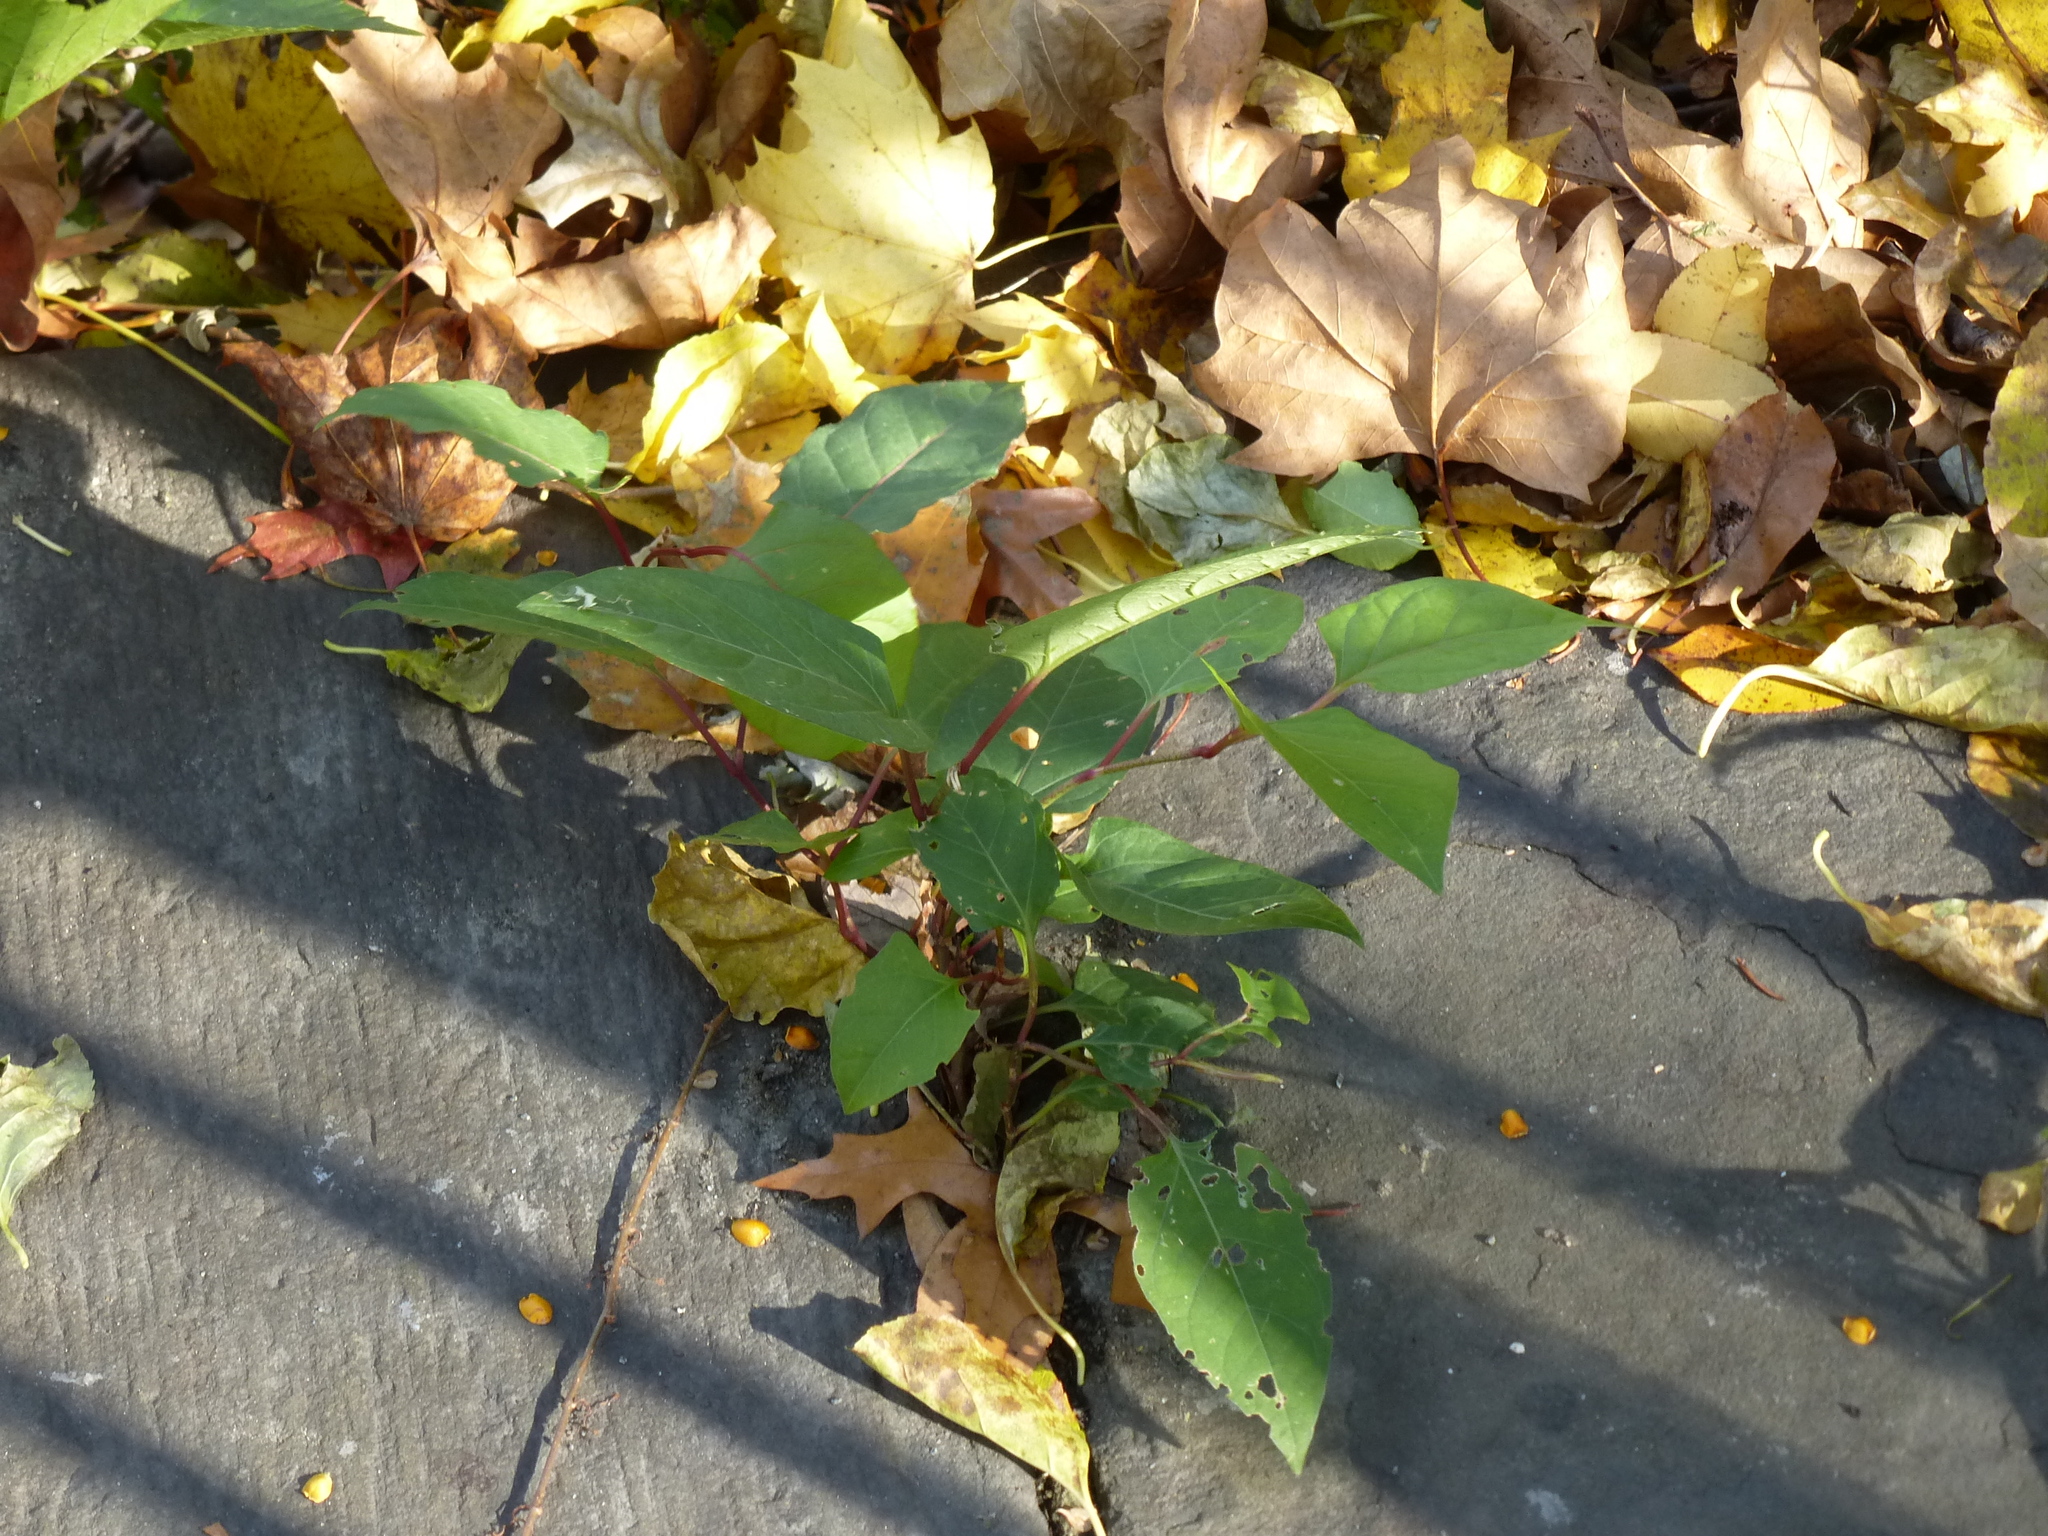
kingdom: Plantae
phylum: Tracheophyta
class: Magnoliopsida
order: Caryophyllales
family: Polygonaceae
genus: Reynoutria
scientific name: Reynoutria japonica
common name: Japanese knotweed
